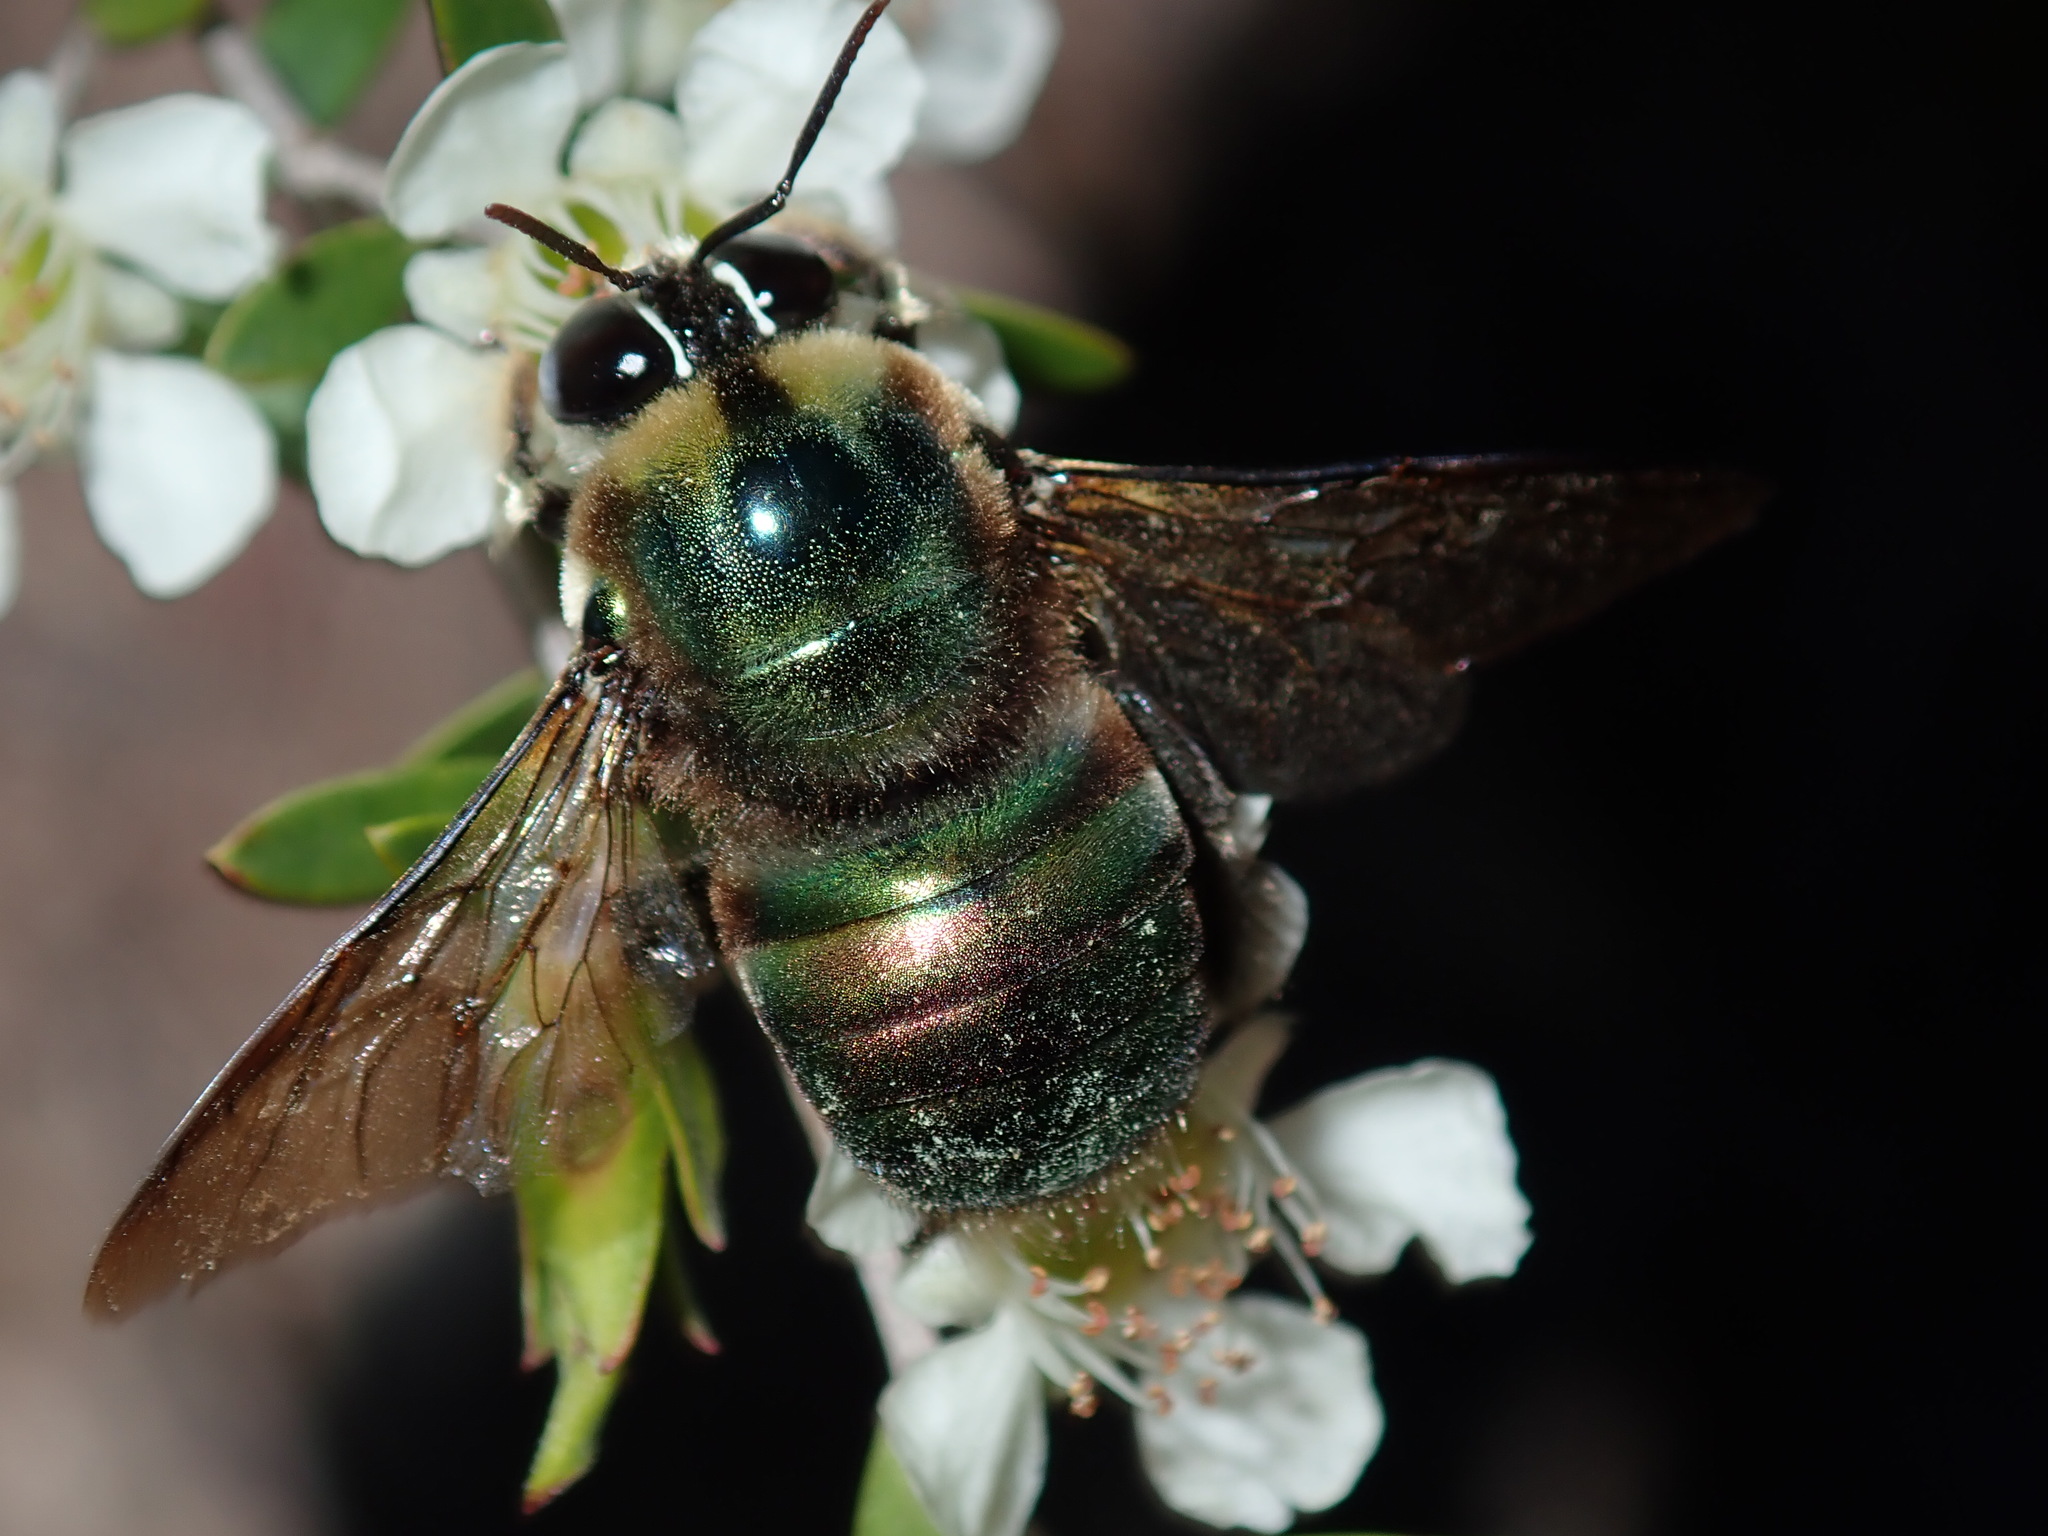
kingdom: Animalia
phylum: Arthropoda
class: Insecta
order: Hymenoptera
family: Apidae
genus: Xylocopa
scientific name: Xylocopa bombylans
